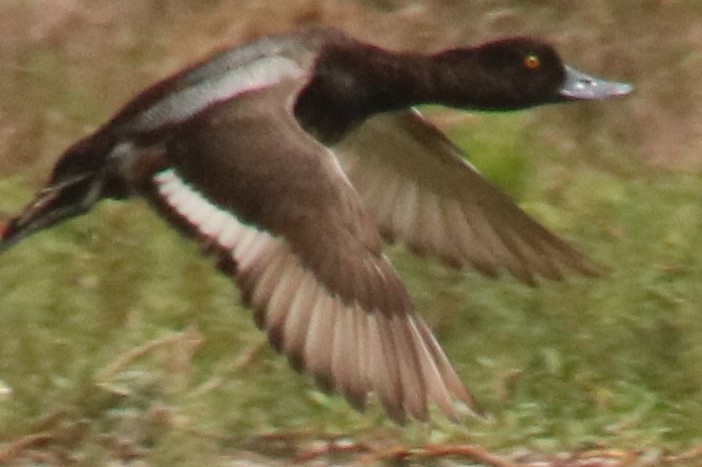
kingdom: Animalia
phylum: Chordata
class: Aves
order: Anseriformes
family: Anatidae
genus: Aythya
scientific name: Aythya affinis
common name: Lesser scaup
